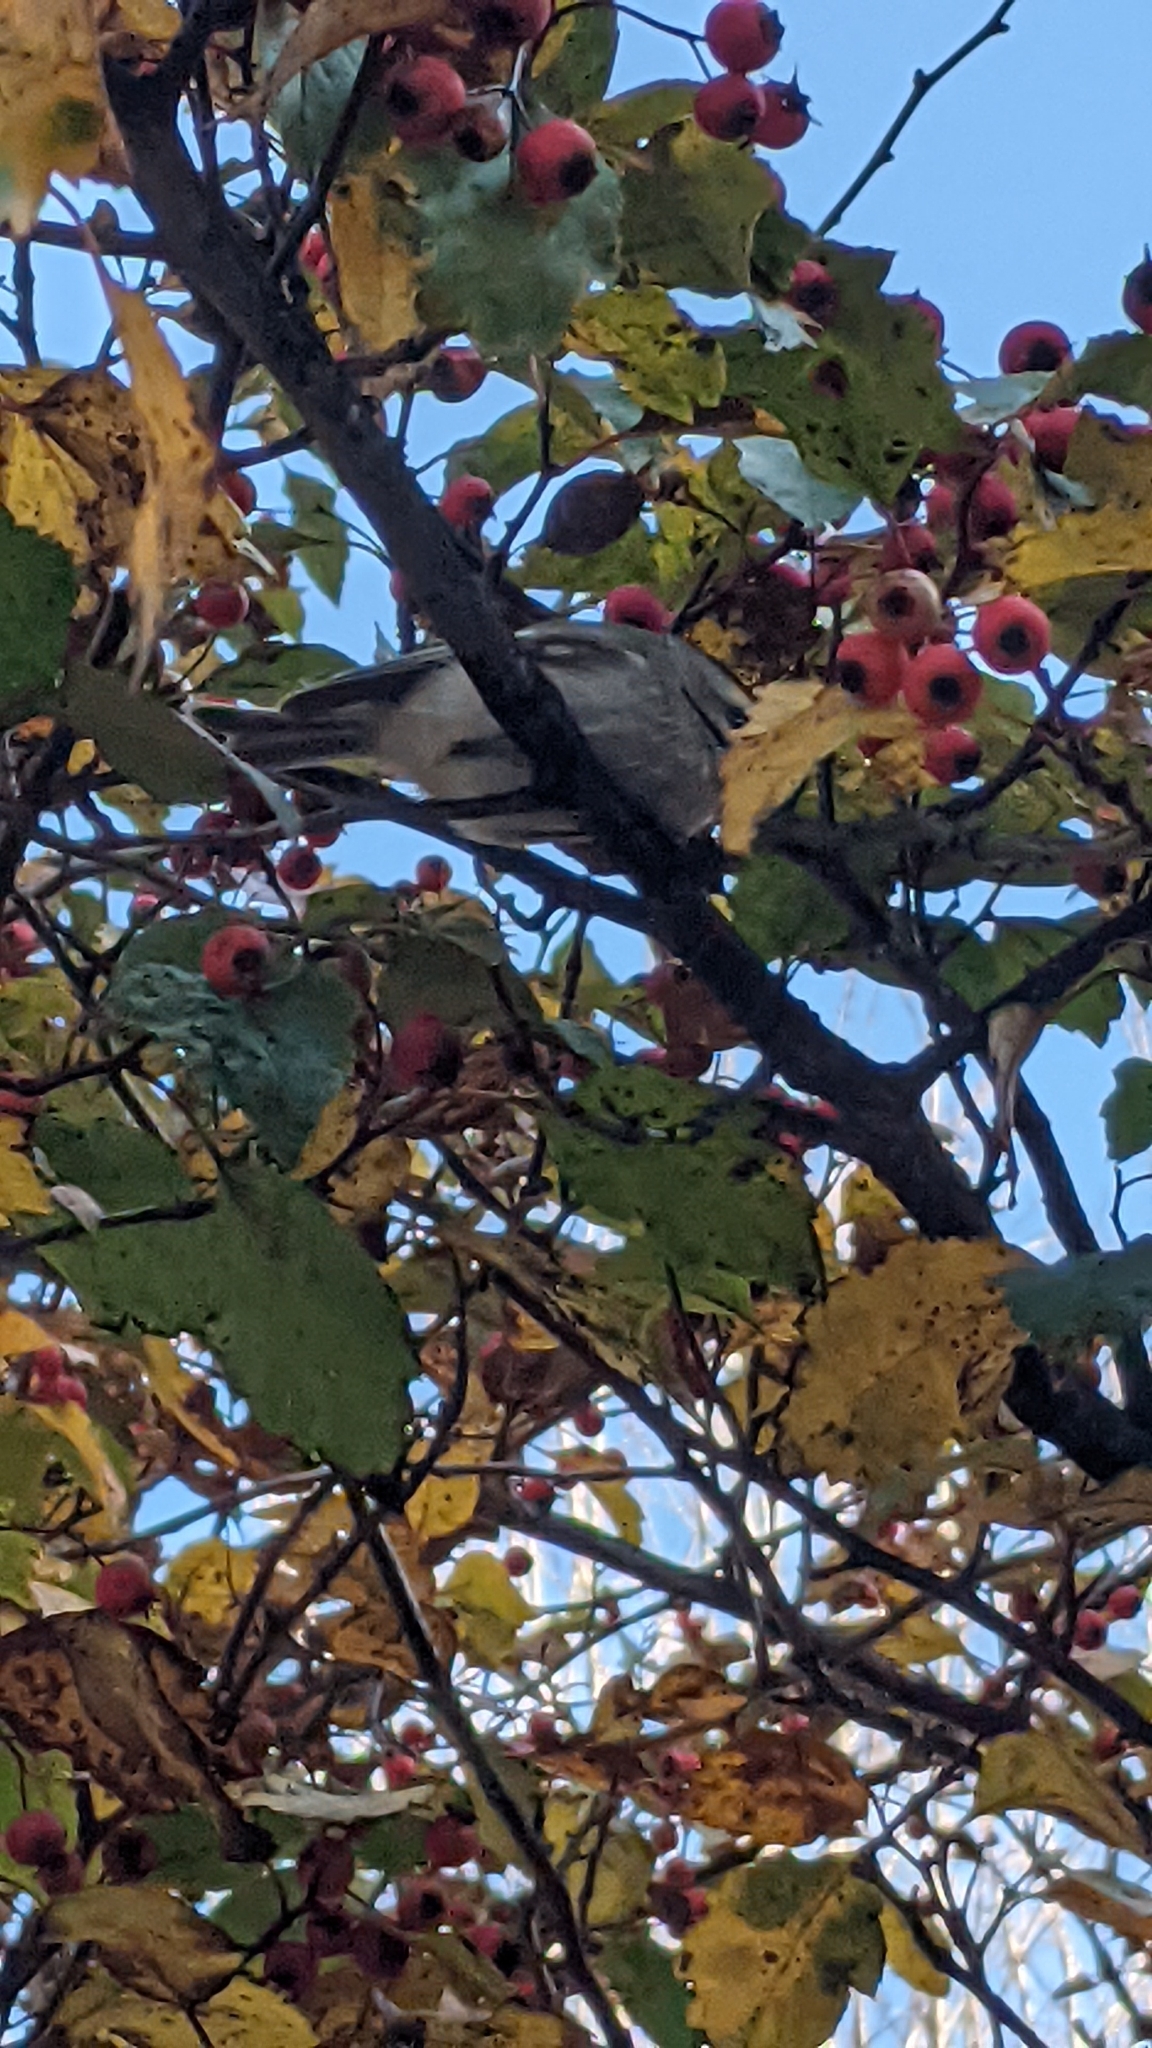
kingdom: Animalia
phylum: Chordata
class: Aves
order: Passeriformes
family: Regulidae
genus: Regulus
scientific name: Regulus satrapa
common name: Golden-crowned kinglet
